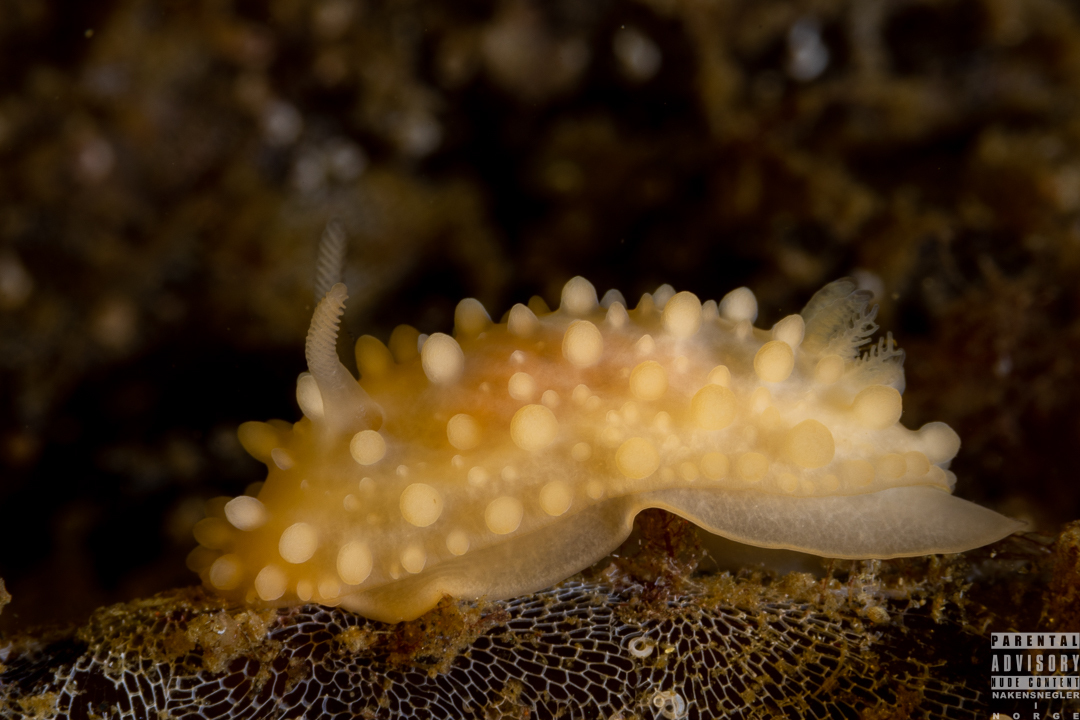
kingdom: Animalia
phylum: Mollusca
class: Gastropoda
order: Nudibranchia
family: Onchidorididae
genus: Adalaria
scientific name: Adalaria loveni
